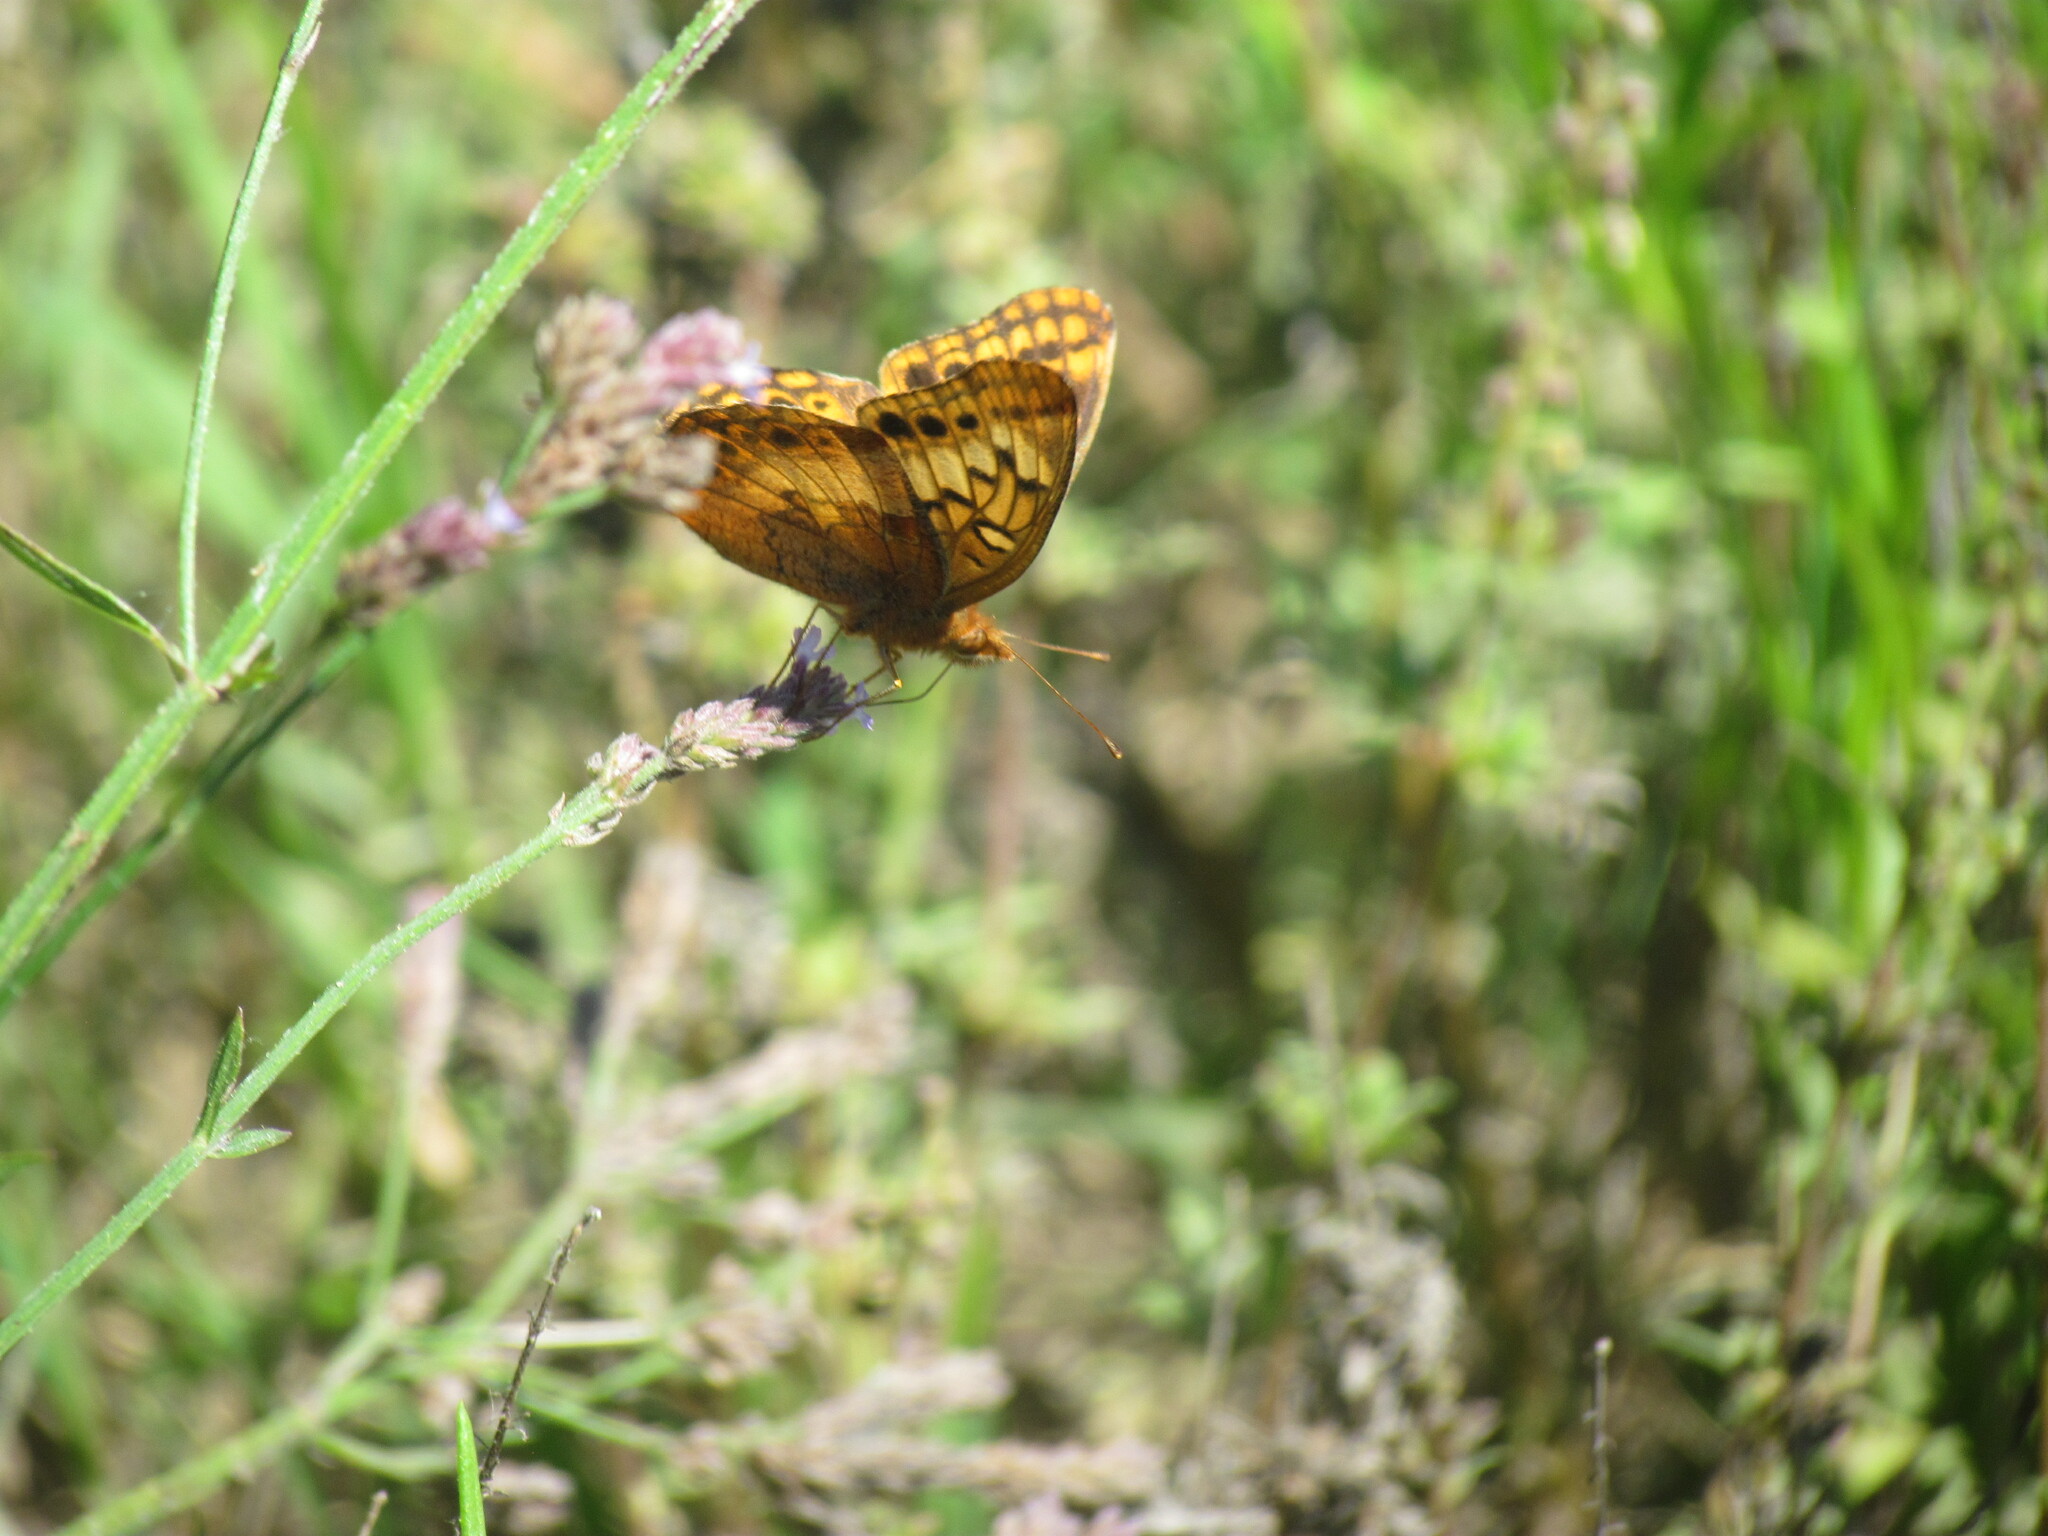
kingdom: Animalia
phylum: Arthropoda
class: Insecta
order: Lepidoptera
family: Nymphalidae
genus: Euptoieta
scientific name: Euptoieta hortensia
